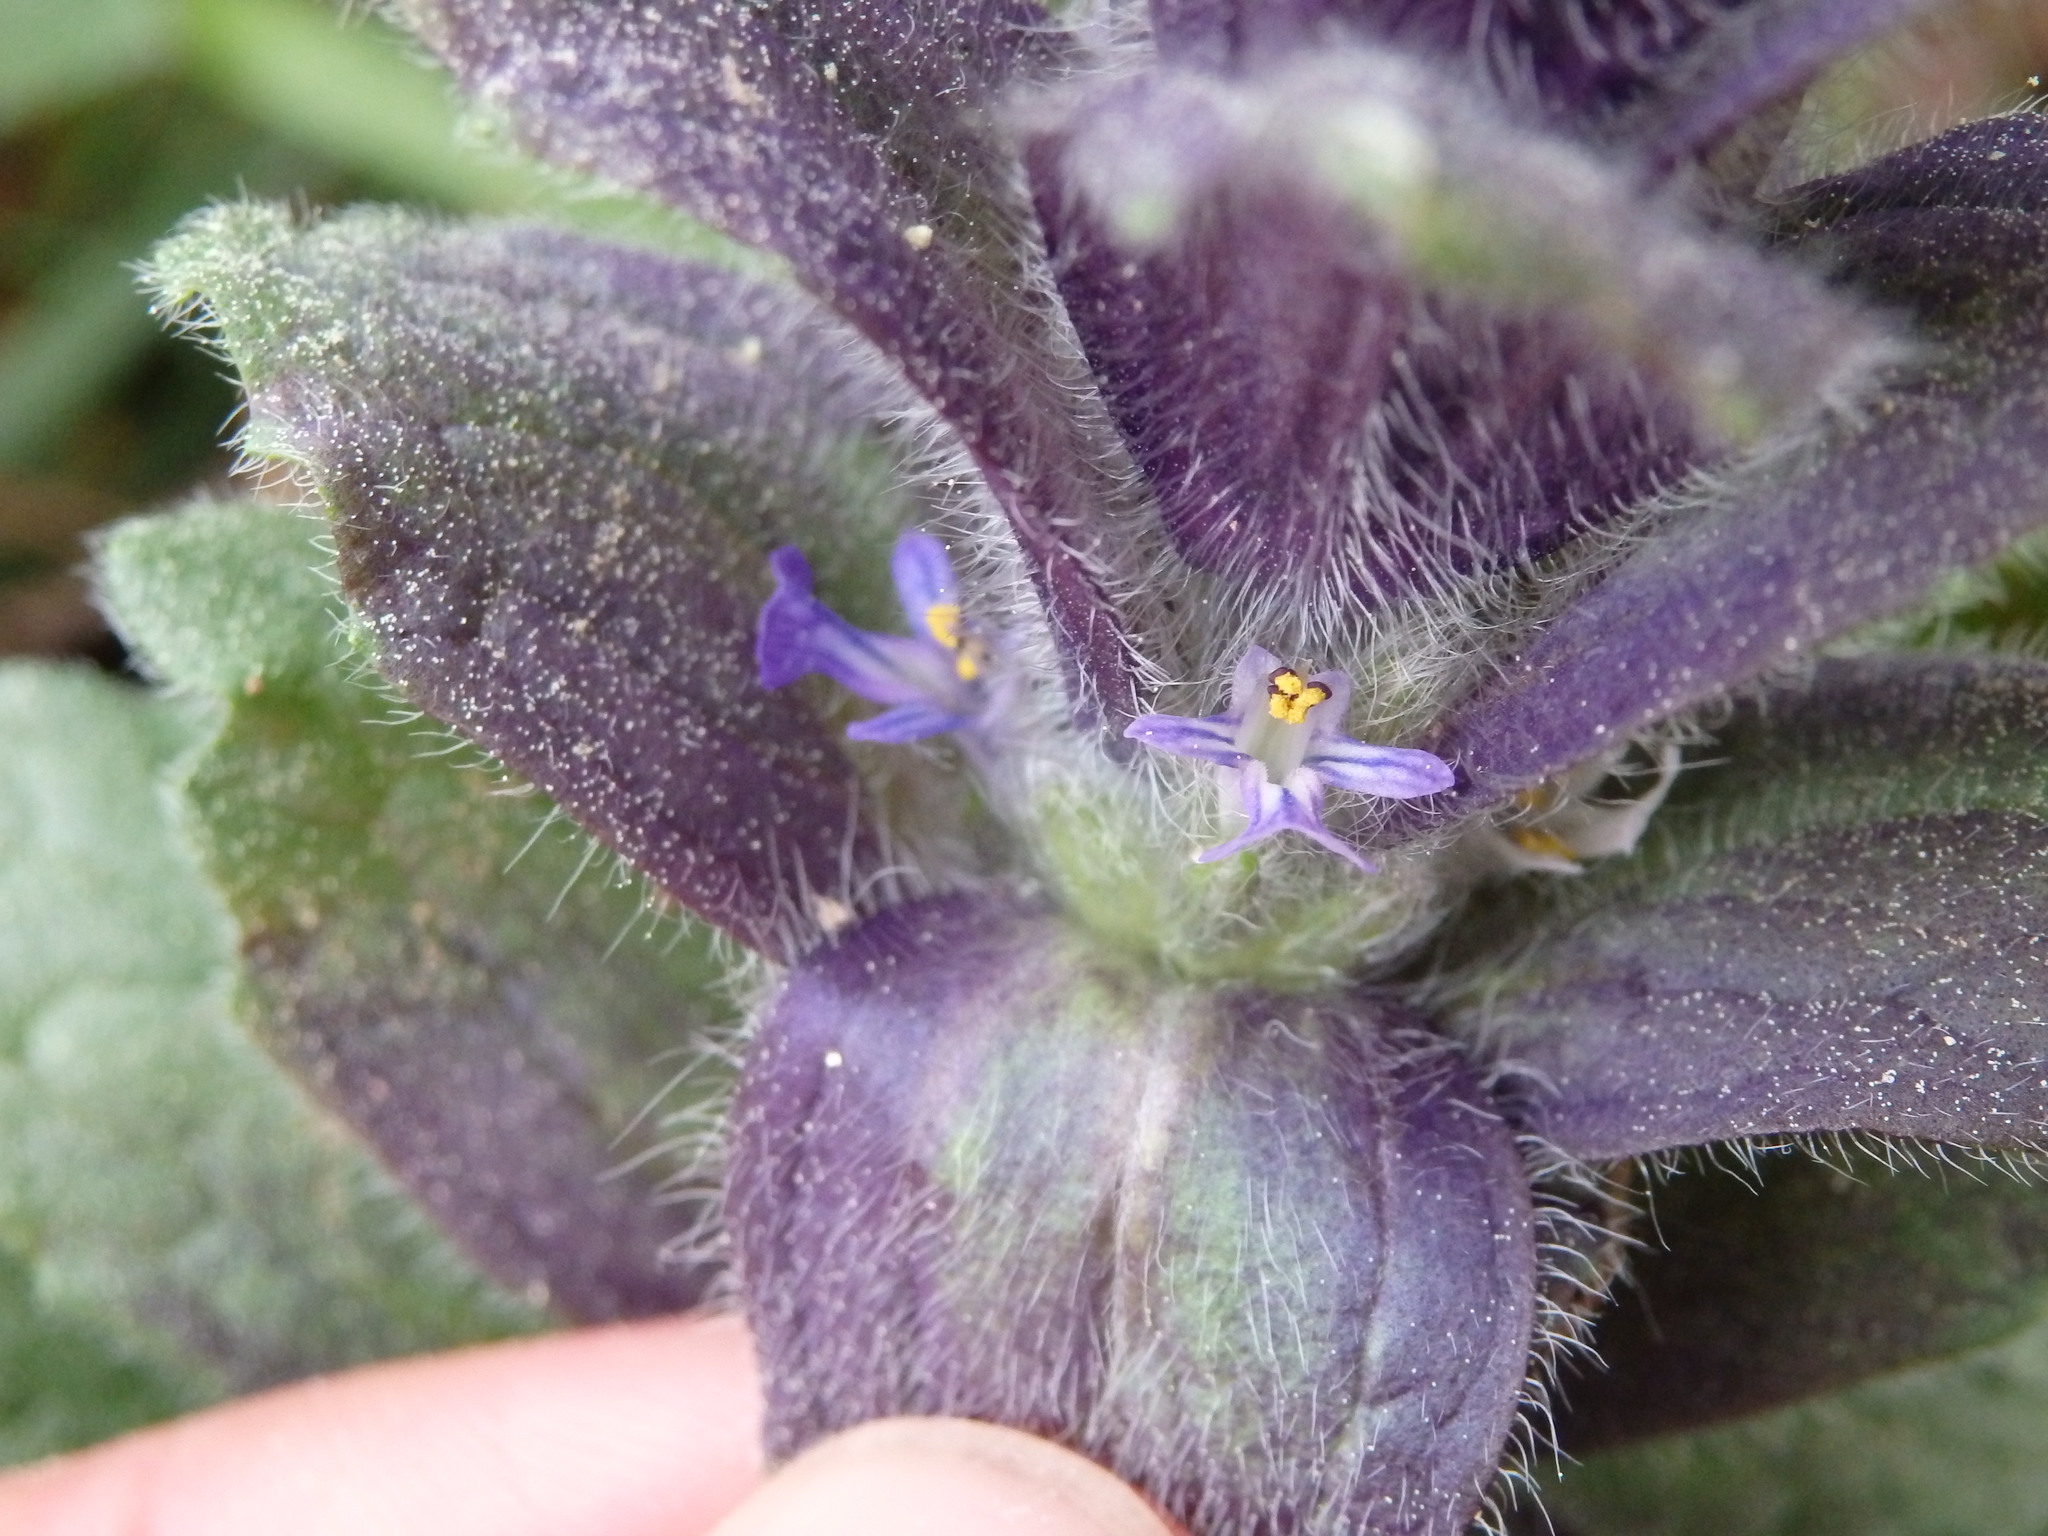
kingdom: Plantae
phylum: Tracheophyta
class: Magnoliopsida
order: Lamiales
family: Lamiaceae
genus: Ajuga
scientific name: Ajuga pyramidalis
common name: Pyramid bugle
